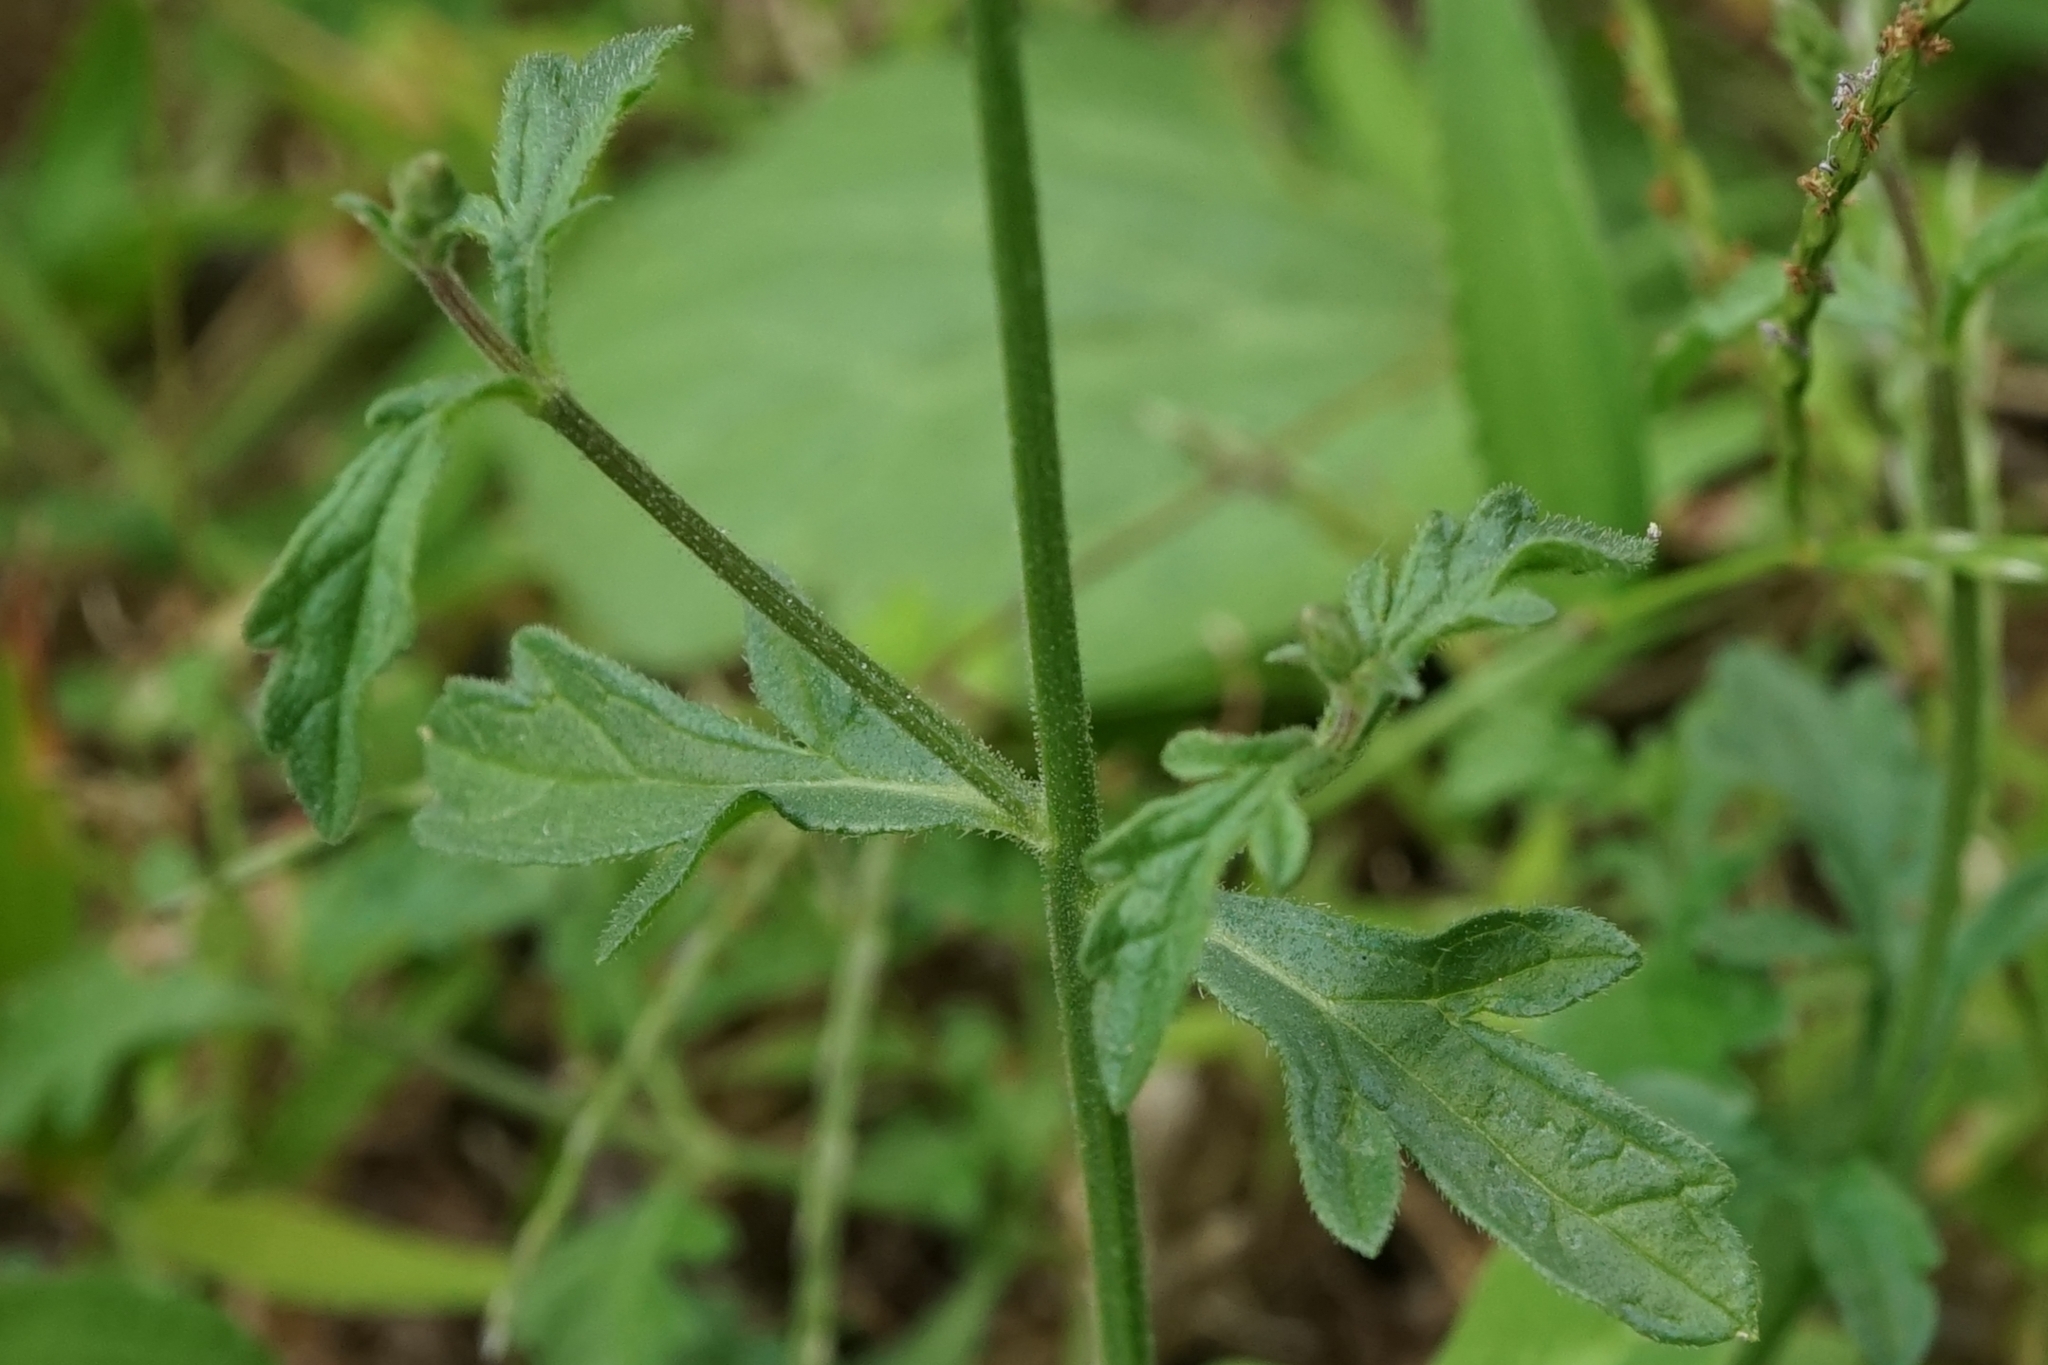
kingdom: Plantae
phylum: Tracheophyta
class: Magnoliopsida
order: Lamiales
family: Verbenaceae
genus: Verbena
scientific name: Verbena officinalis
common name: Vervain
